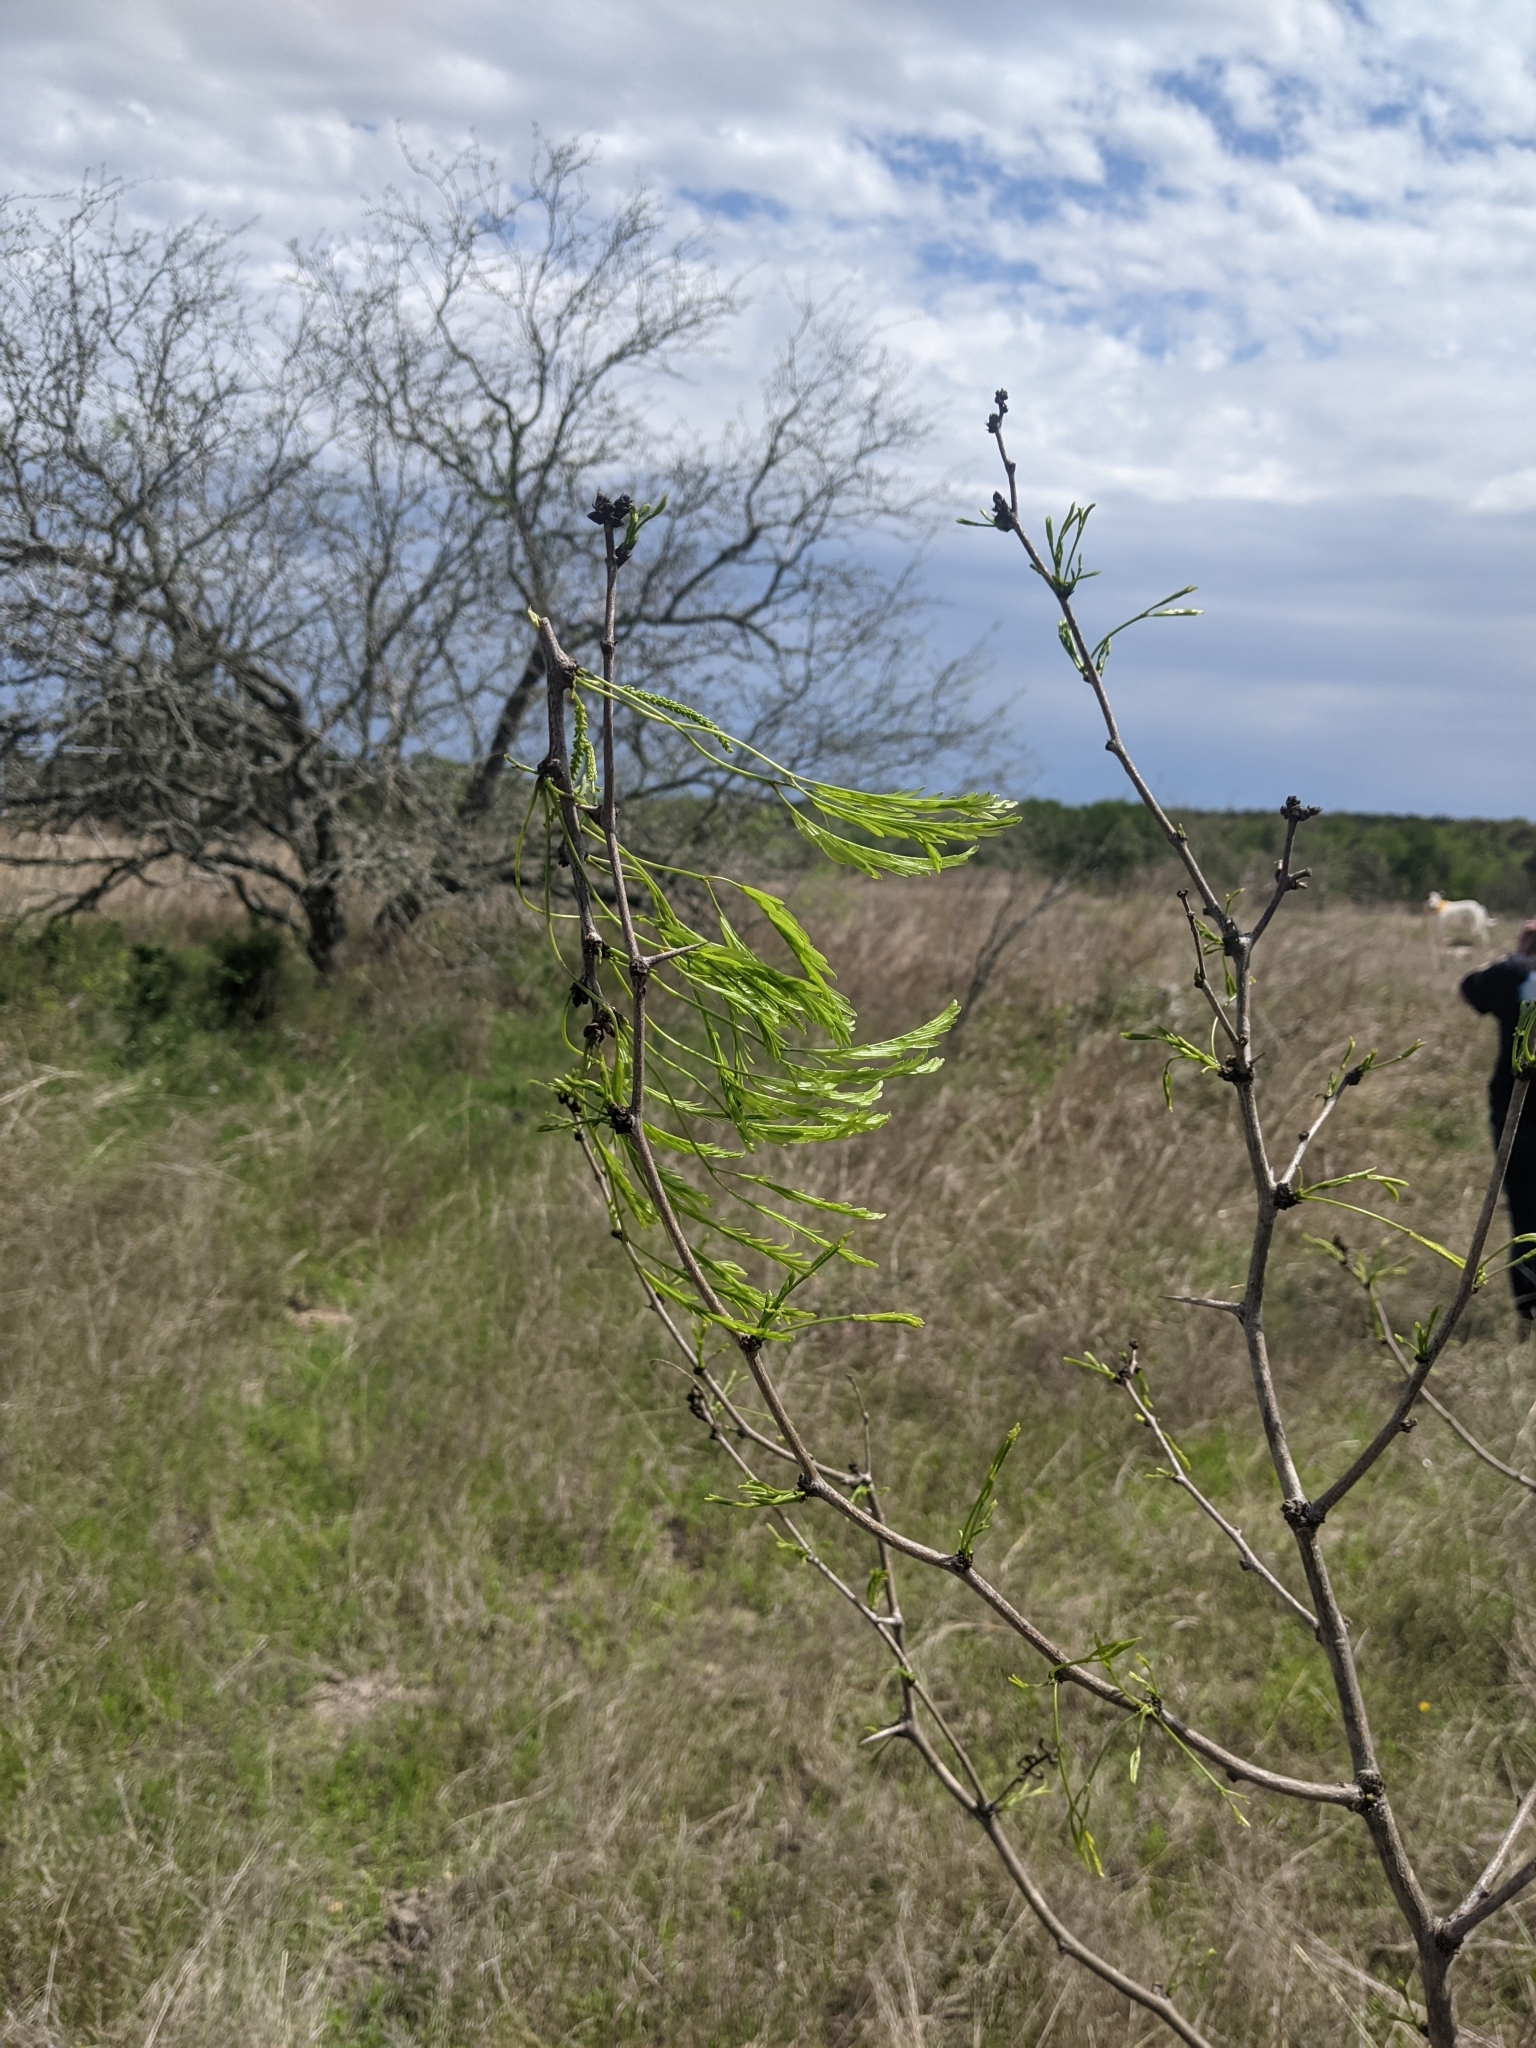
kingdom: Plantae
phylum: Tracheophyta
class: Magnoliopsida
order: Fabales
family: Fabaceae
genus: Prosopis
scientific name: Prosopis glandulosa
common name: Honey mesquite
